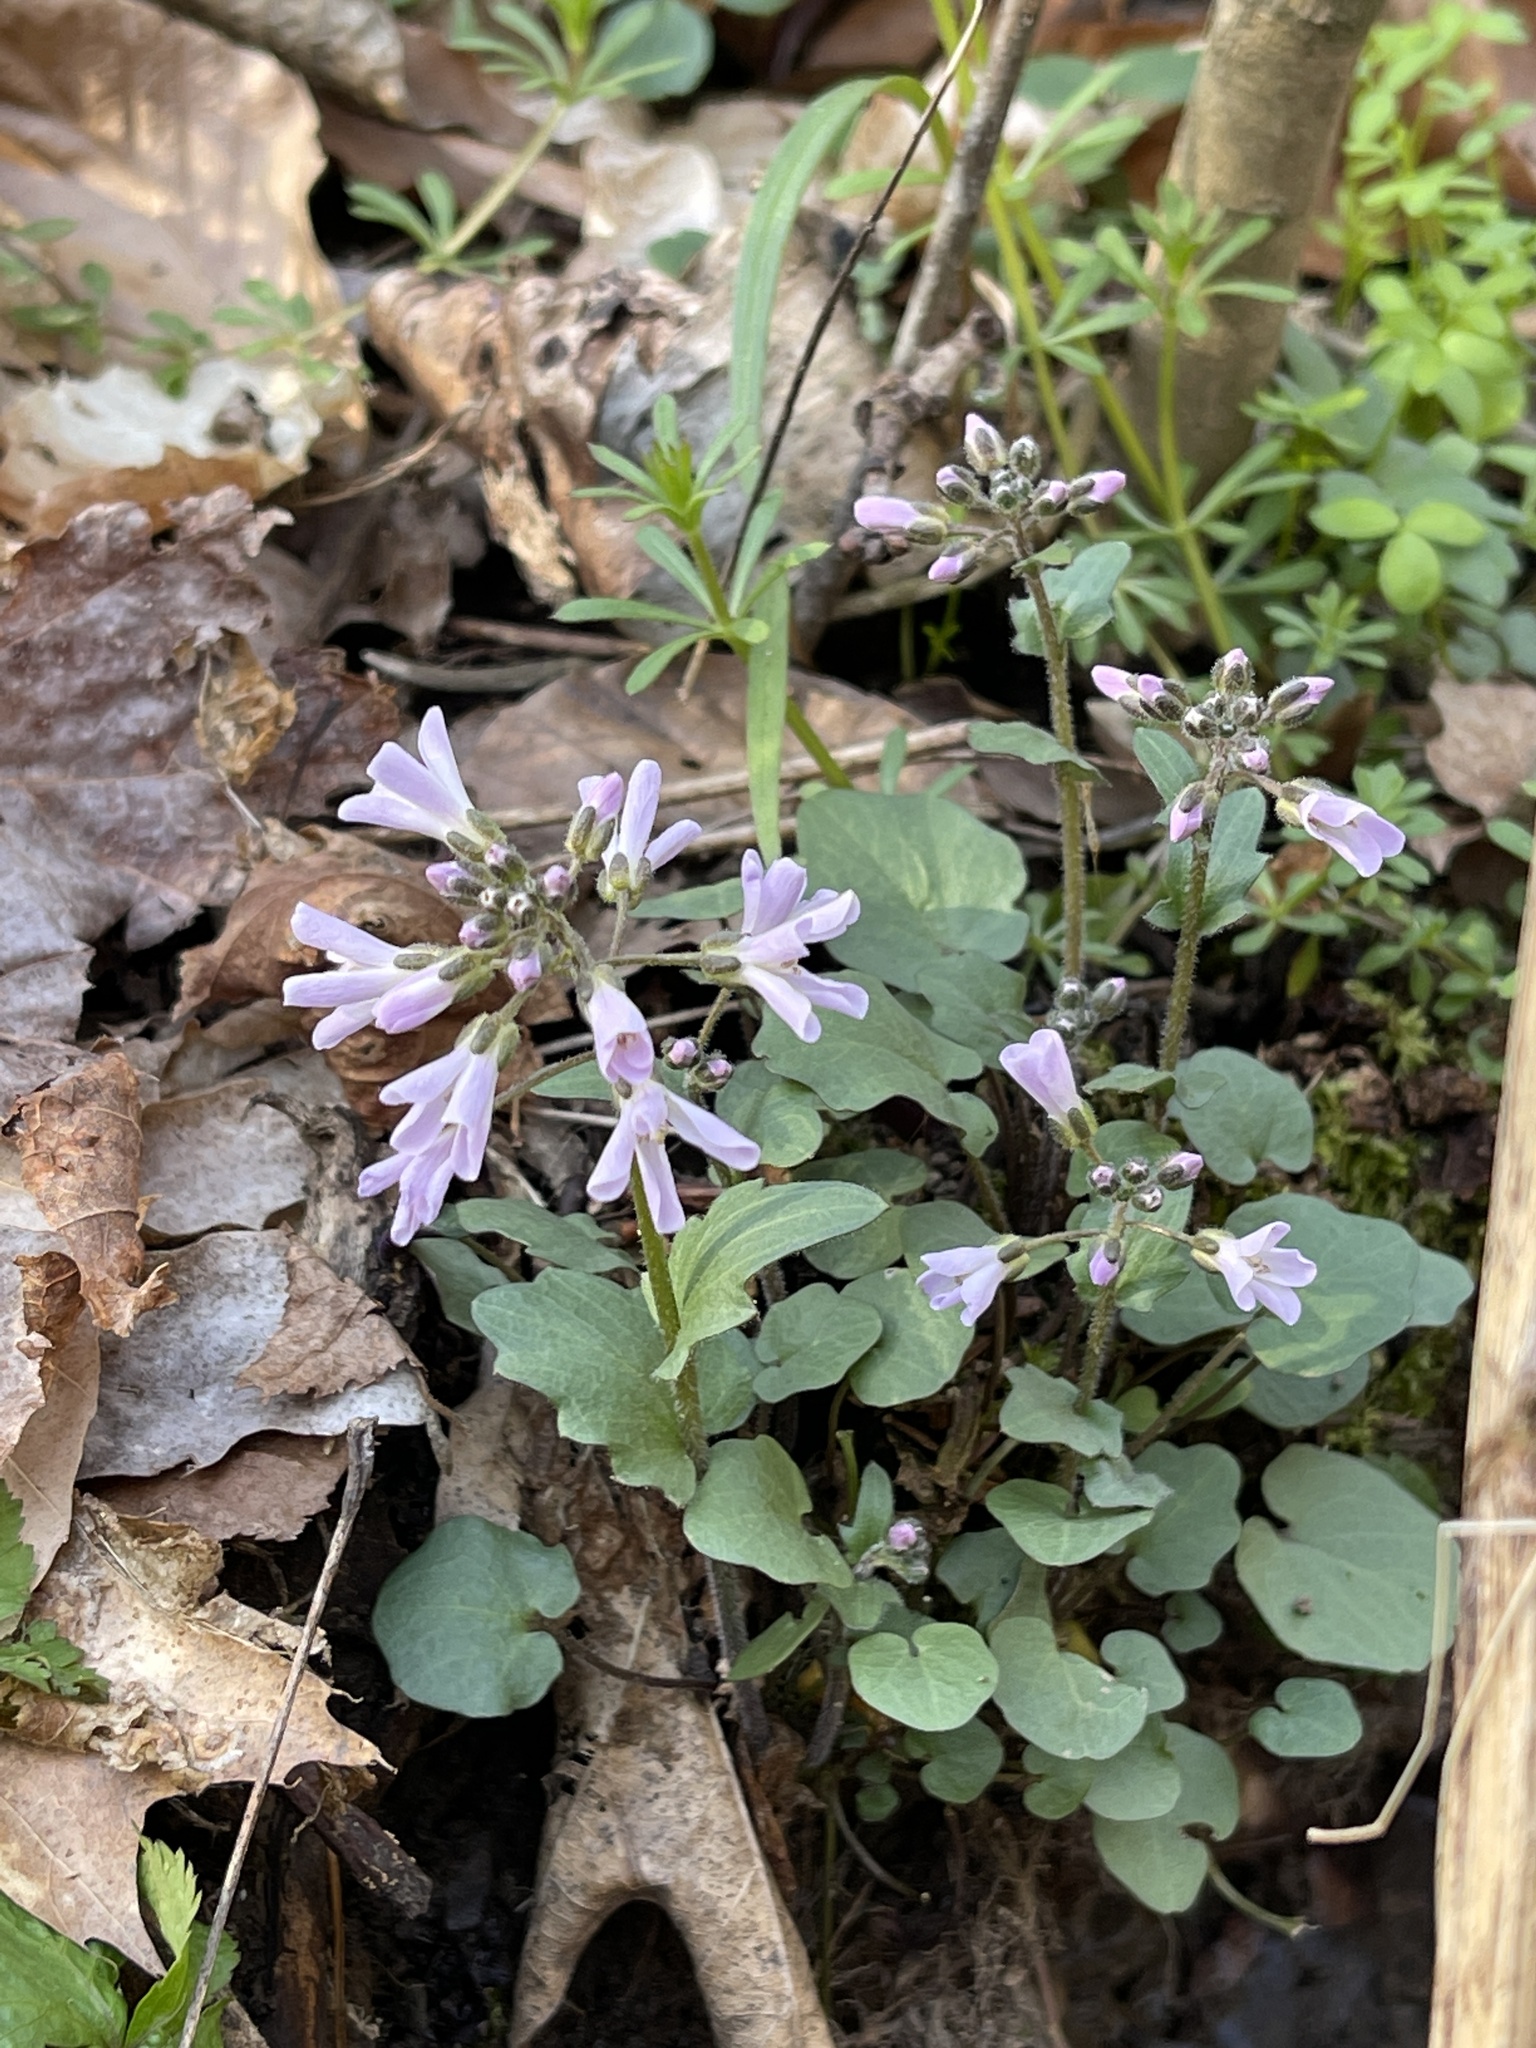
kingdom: Plantae
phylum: Tracheophyta
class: Magnoliopsida
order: Brassicales
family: Brassicaceae
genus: Cardamine
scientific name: Cardamine douglassii
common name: Purple cress
